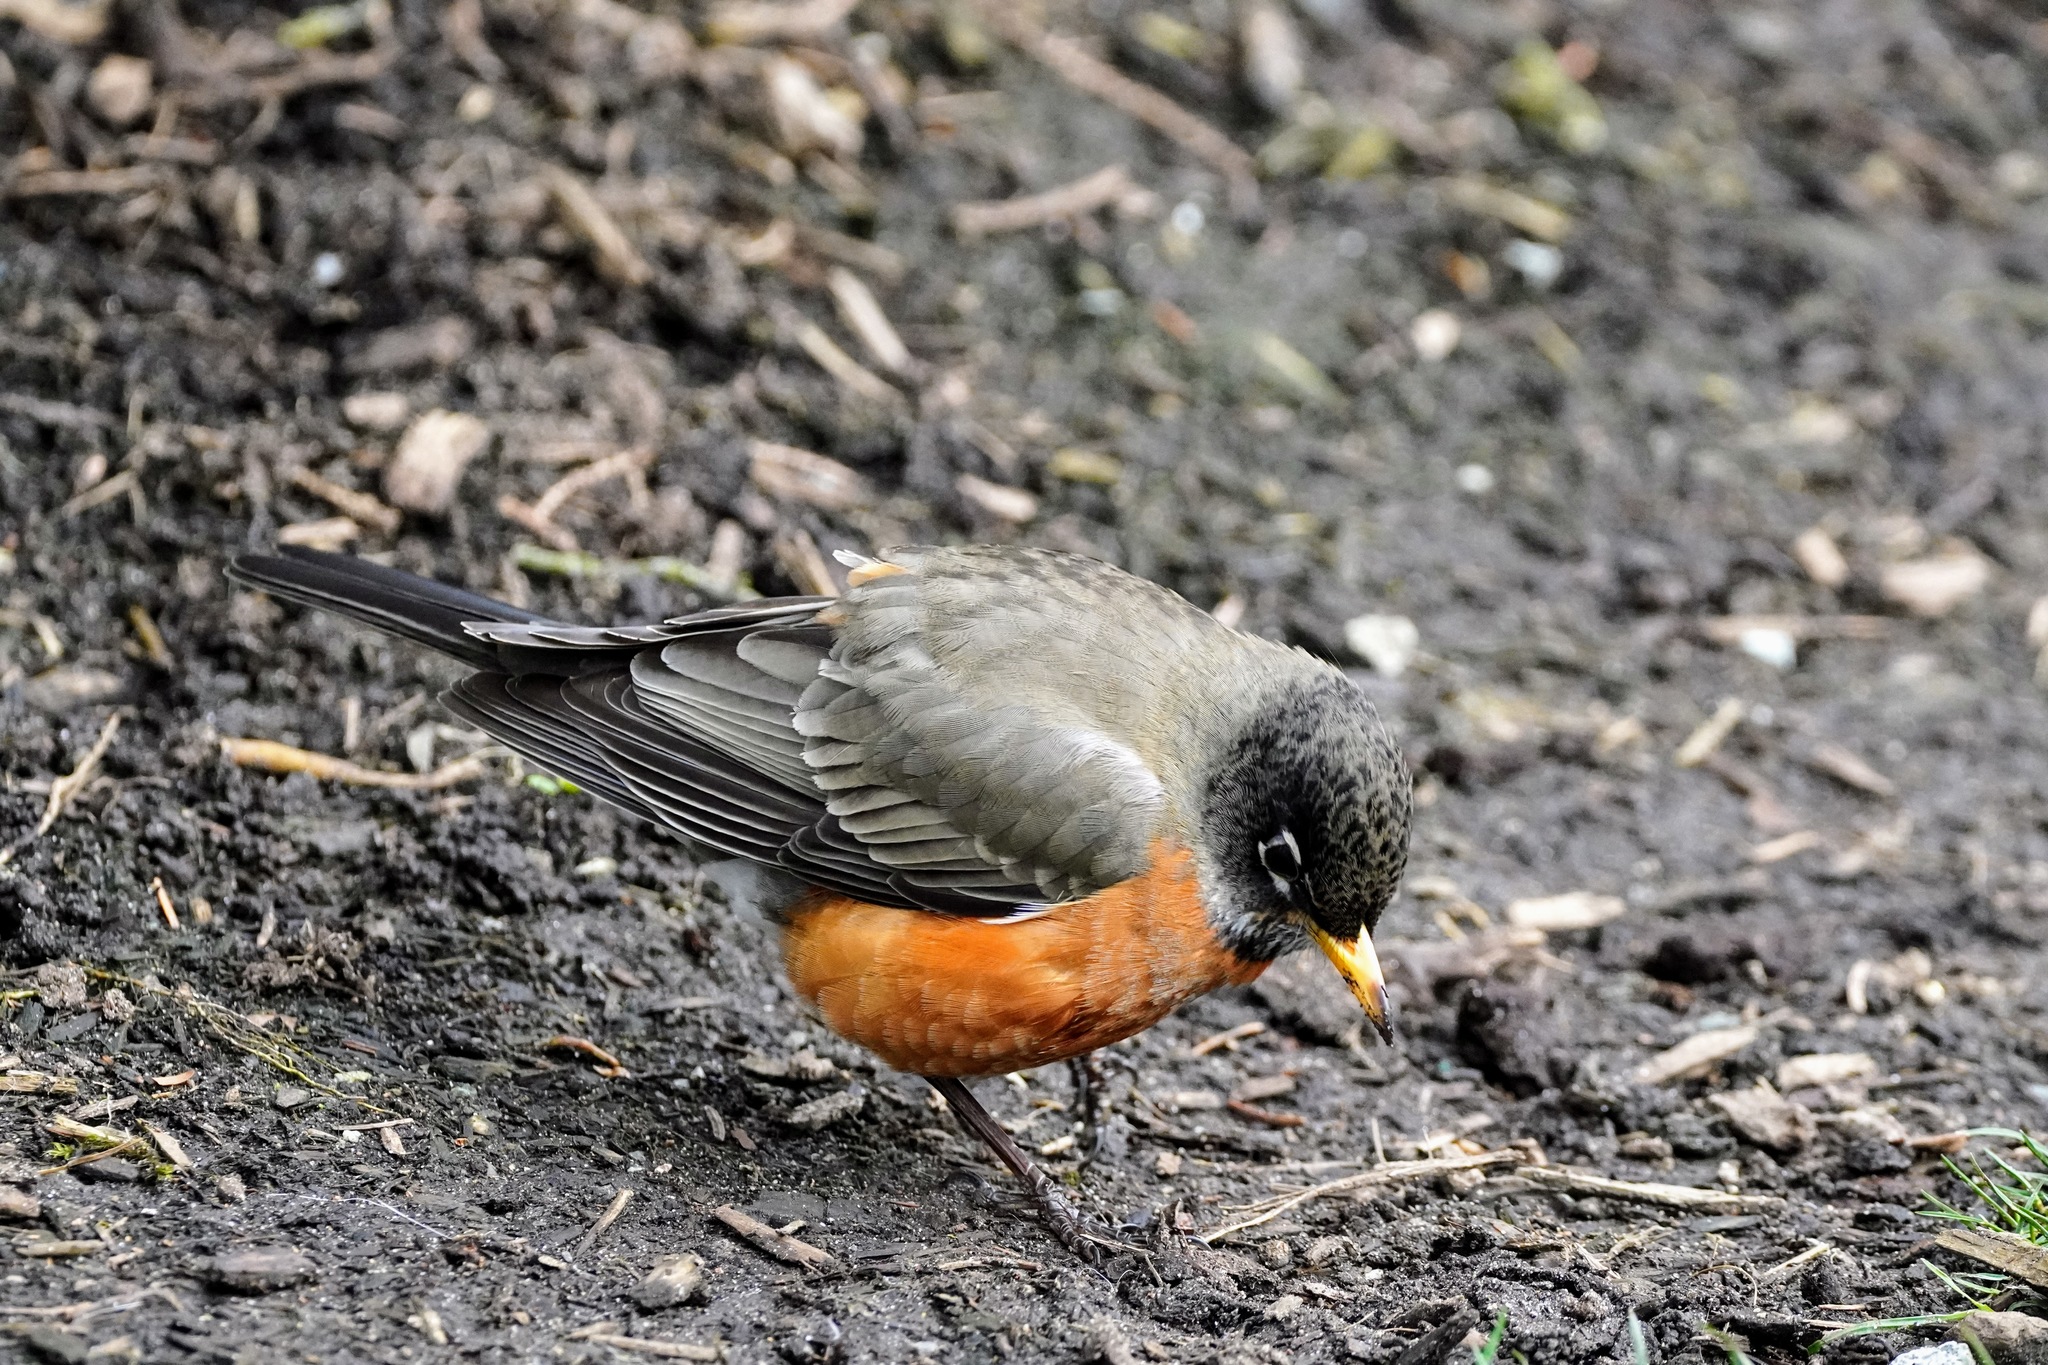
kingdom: Animalia
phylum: Chordata
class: Aves
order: Passeriformes
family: Turdidae
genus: Turdus
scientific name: Turdus migratorius
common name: American robin
